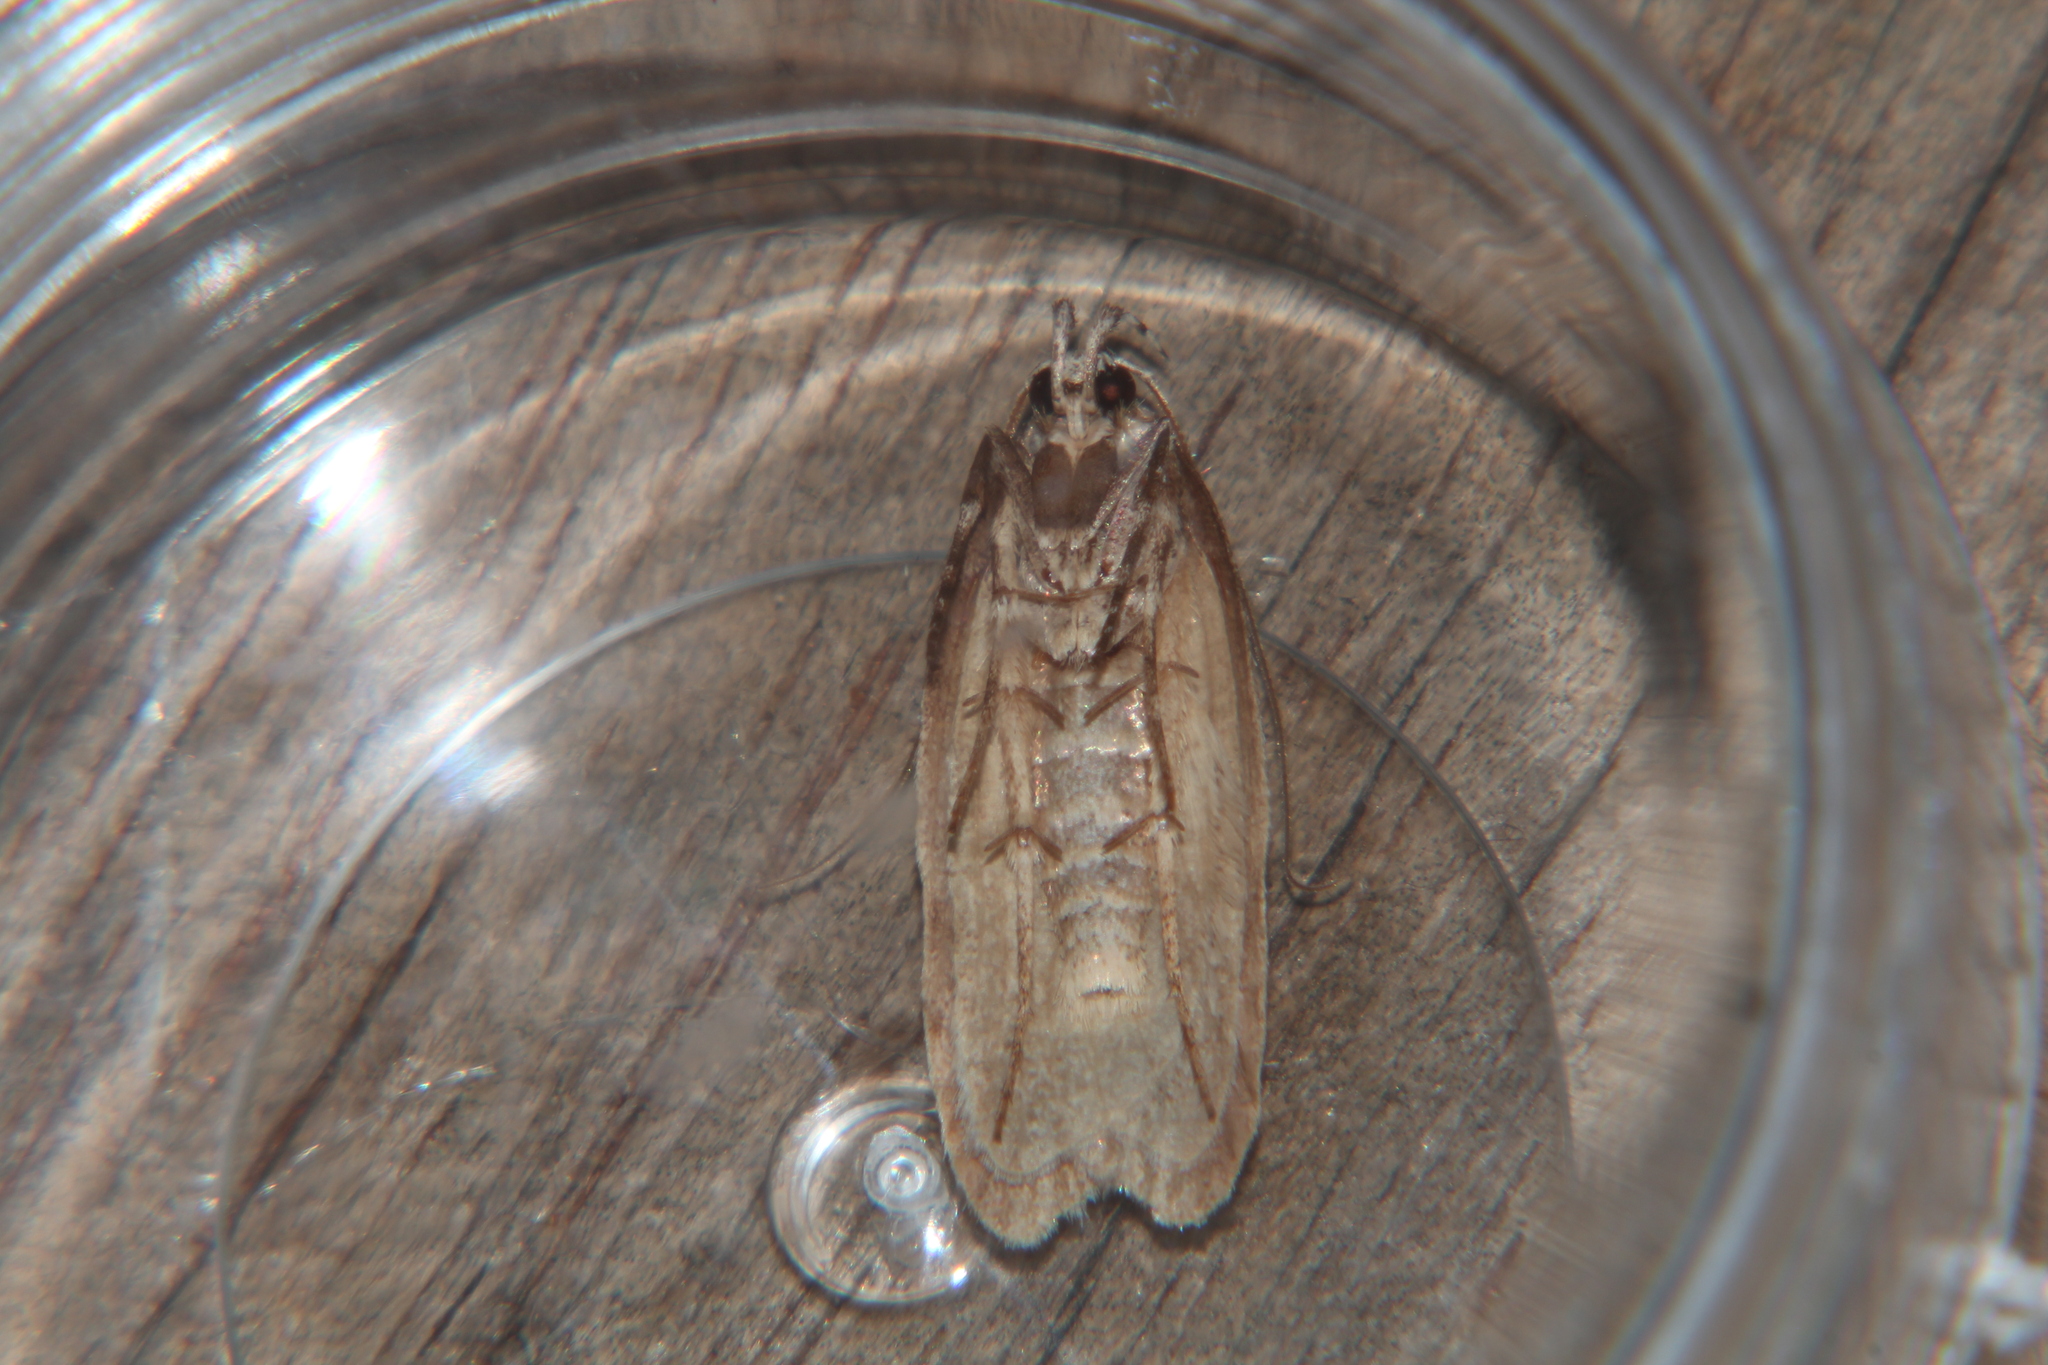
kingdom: Animalia
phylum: Arthropoda
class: Insecta
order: Lepidoptera
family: Oecophoridae
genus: Izatha
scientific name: Izatha attactella
